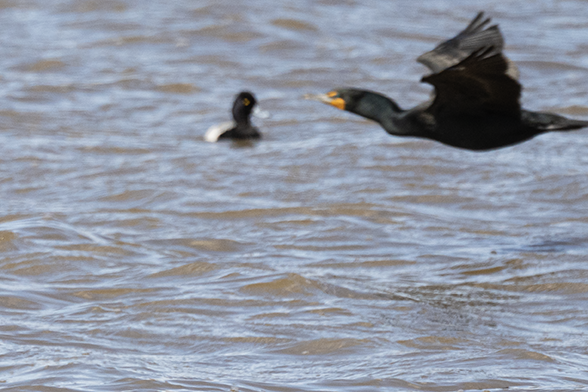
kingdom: Animalia
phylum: Chordata
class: Aves
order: Suliformes
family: Phalacrocoracidae
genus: Phalacrocorax
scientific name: Phalacrocorax auritus
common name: Double-crested cormorant
